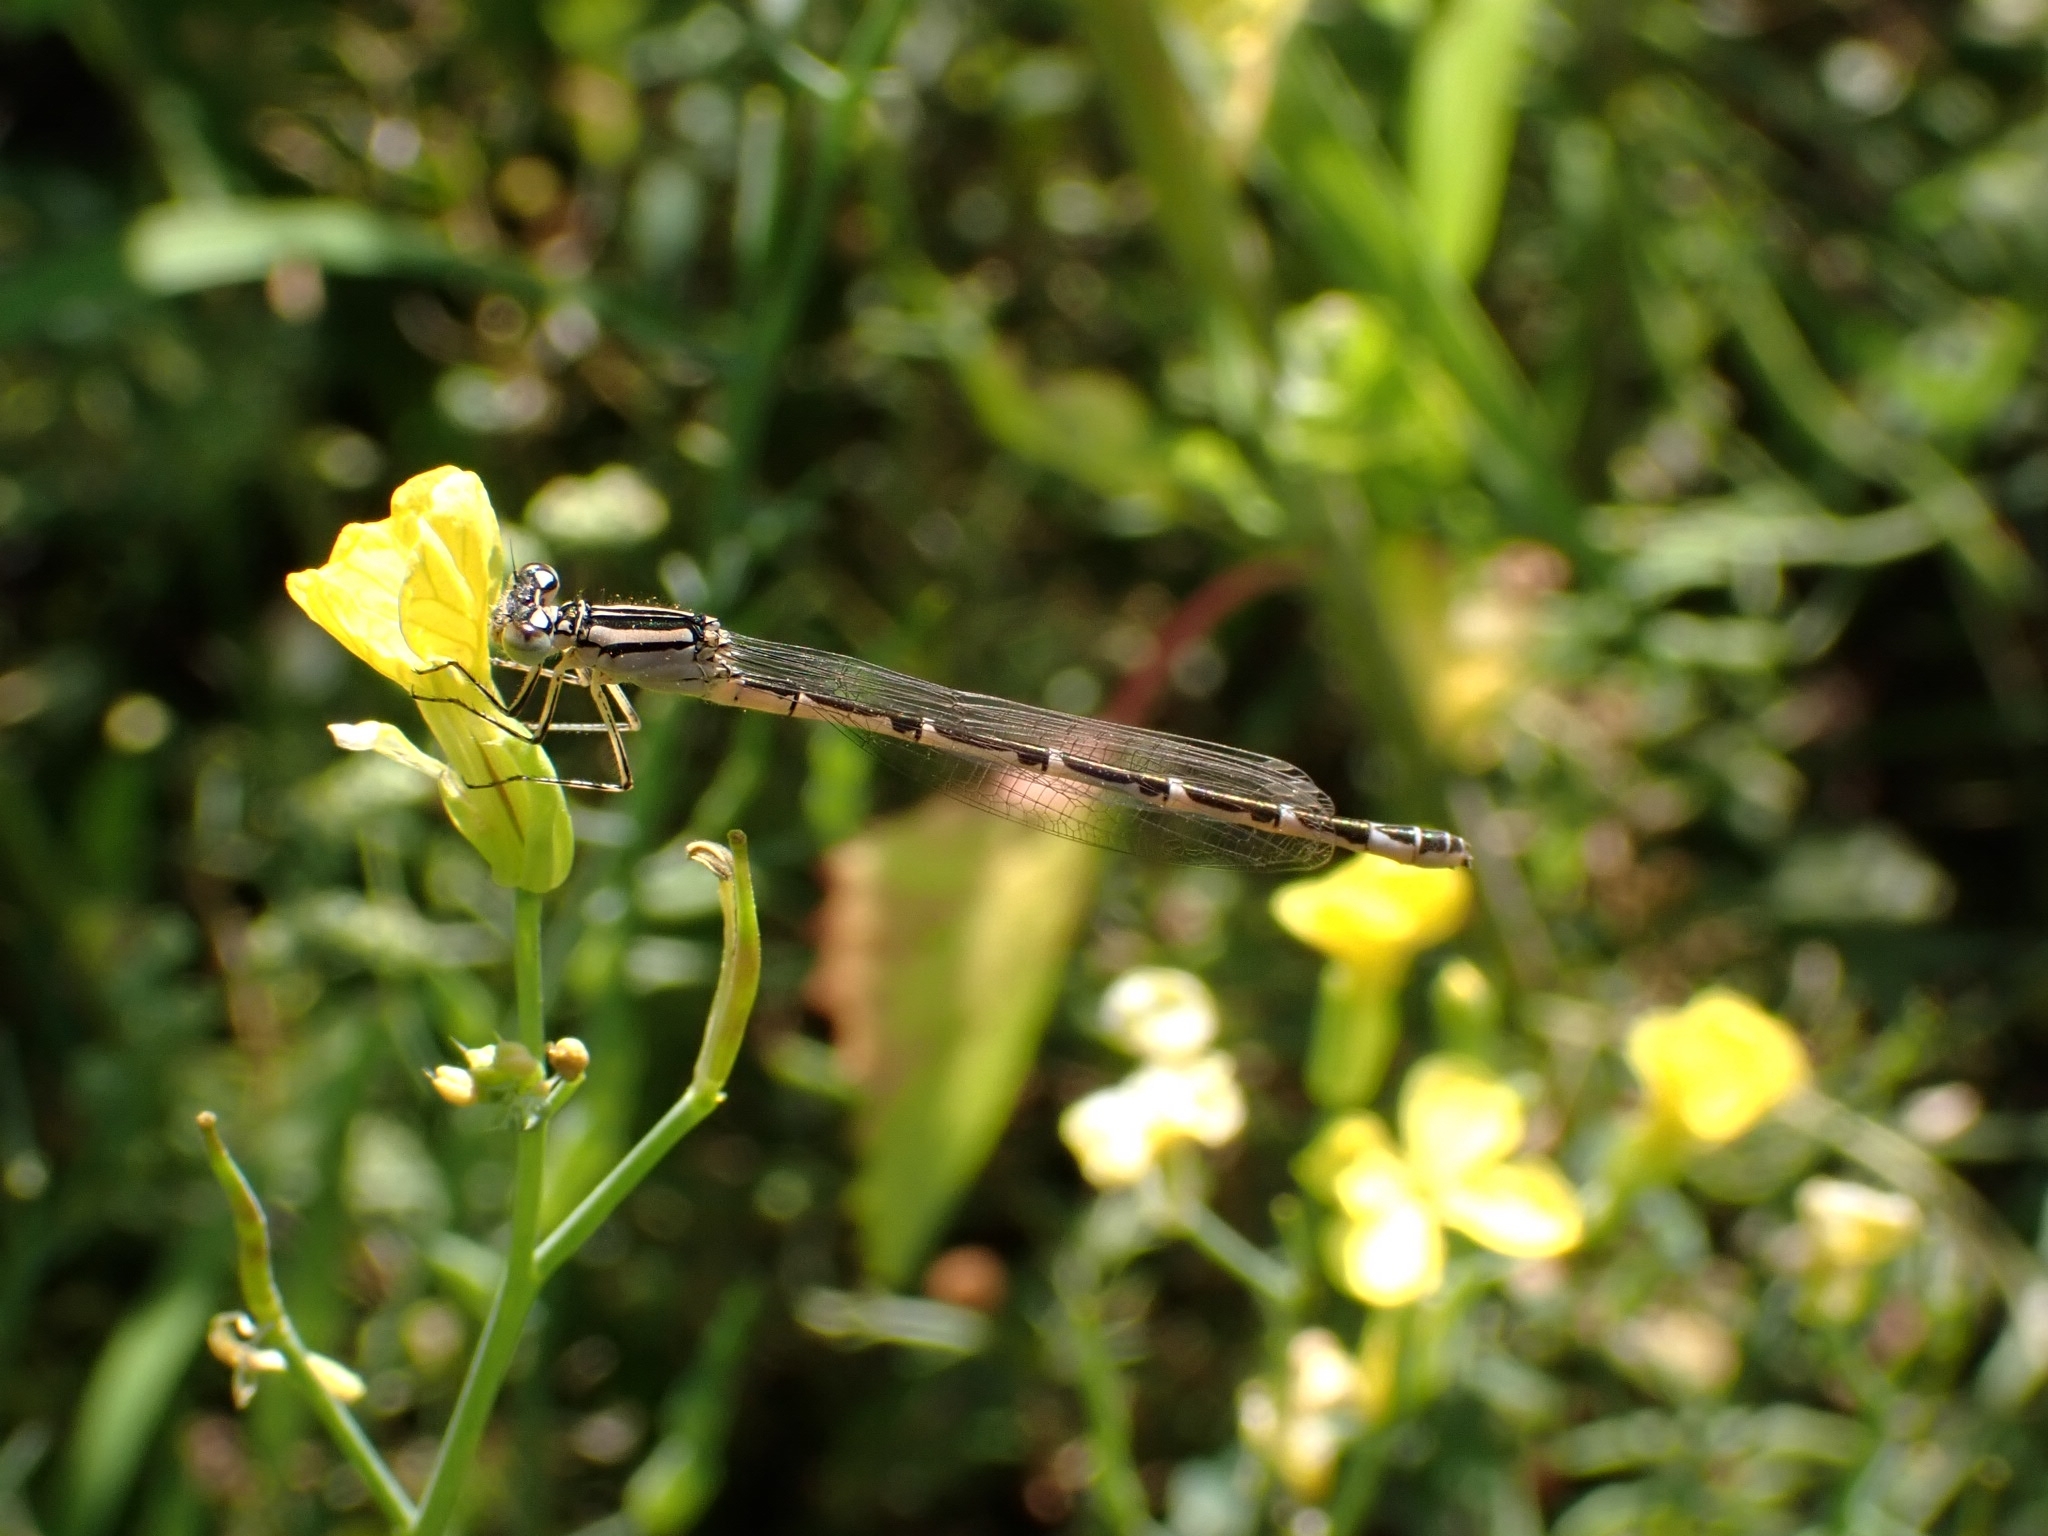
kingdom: Animalia
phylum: Arthropoda
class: Insecta
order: Odonata
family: Coenagrionidae
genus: Enallagma
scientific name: Enallagma cyathigerum
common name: Common blue damselfly
